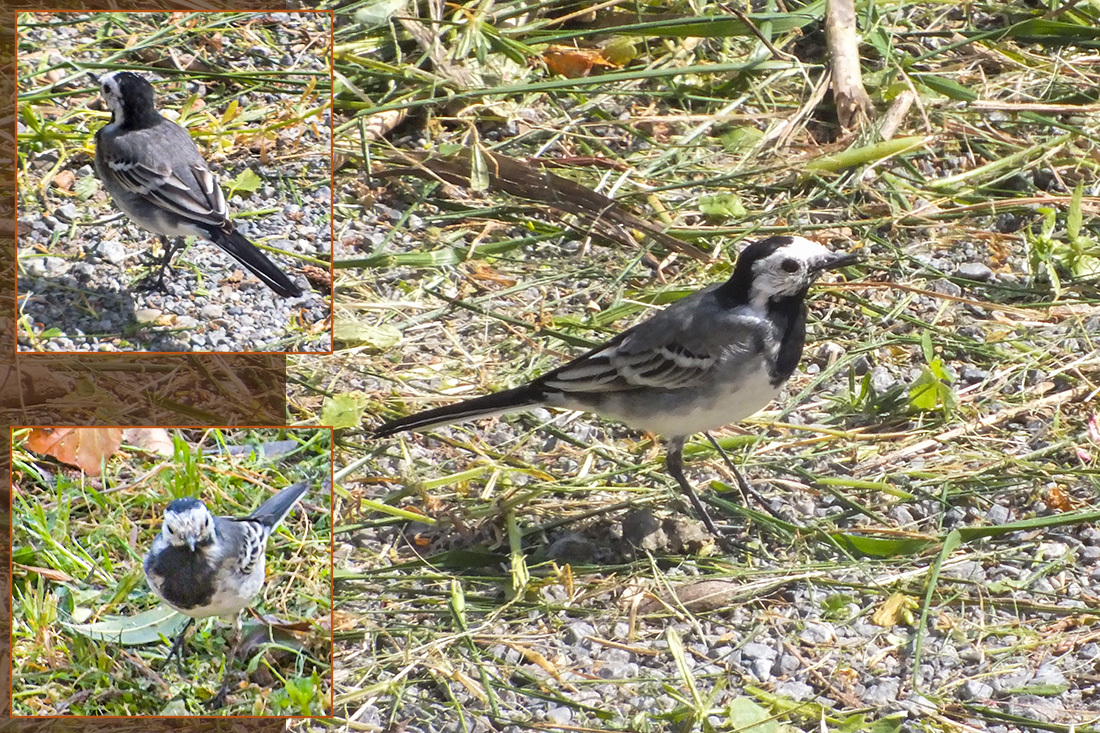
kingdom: Animalia
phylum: Chordata
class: Aves
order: Passeriformes
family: Motacillidae
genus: Motacilla
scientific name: Motacilla alba
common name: White wagtail
